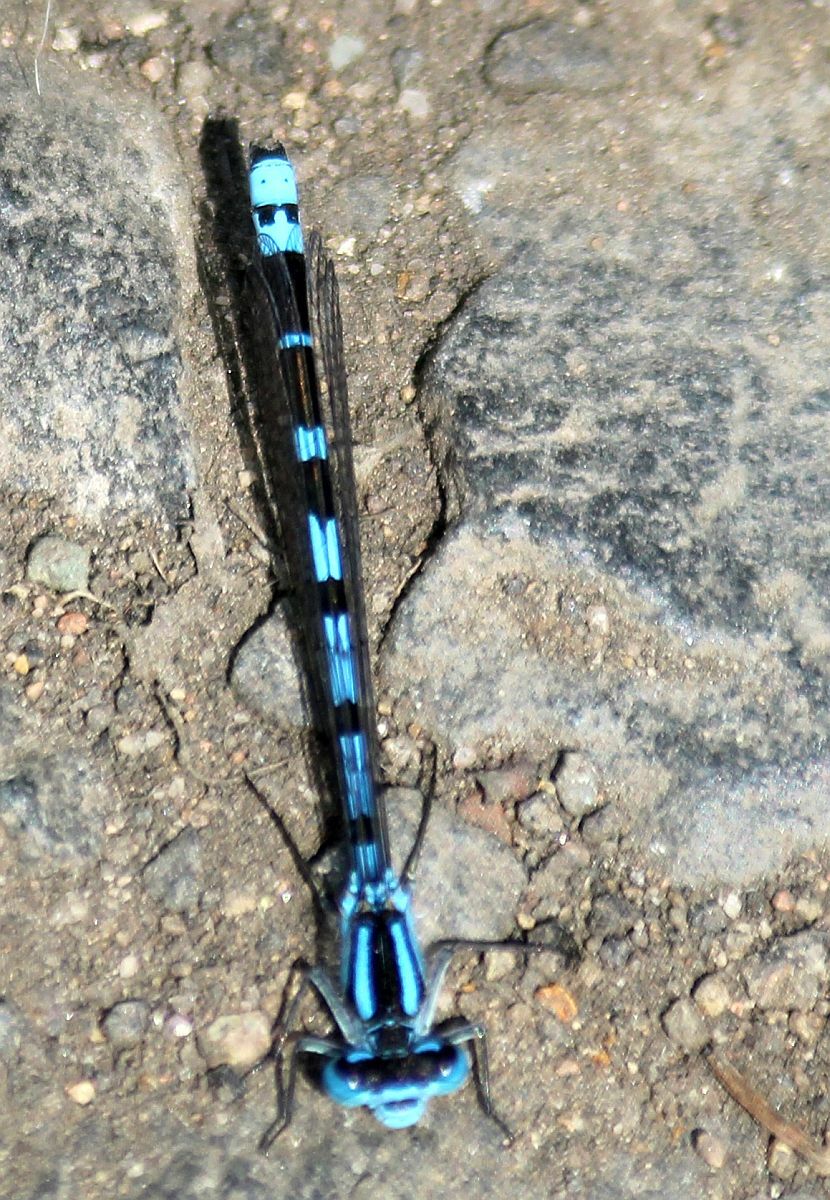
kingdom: Animalia
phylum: Arthropoda
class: Insecta
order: Odonata
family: Coenagrionidae
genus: Enallagma
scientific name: Enallagma cyathigerum
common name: Common blue damselfly
